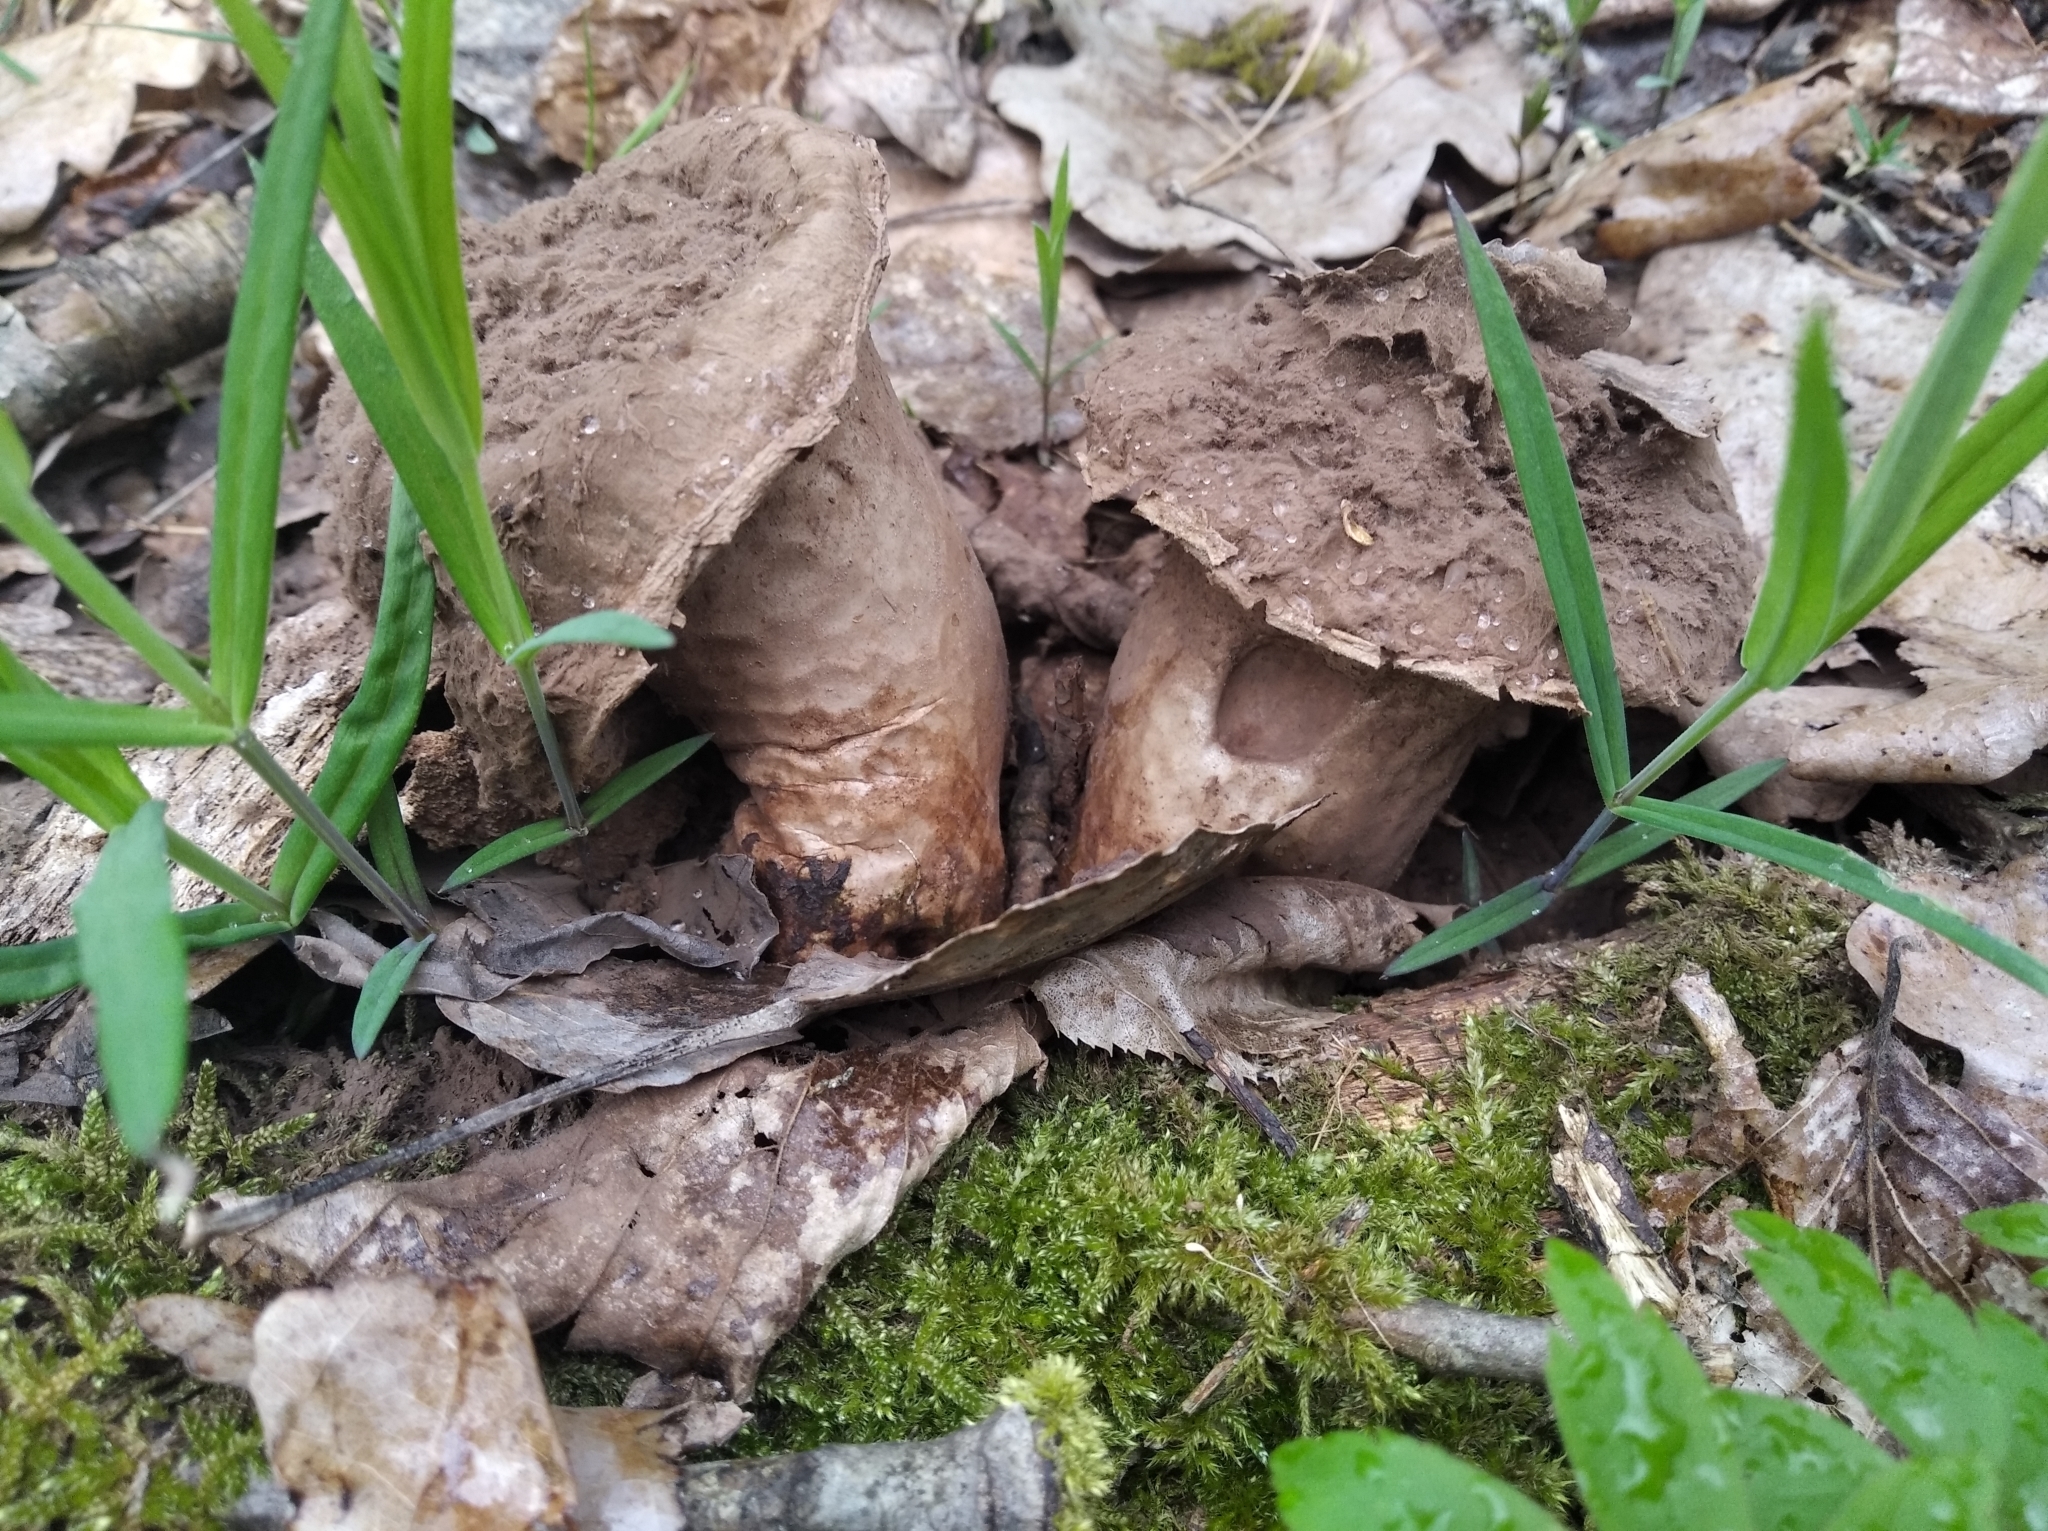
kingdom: Fungi
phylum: Basidiomycota
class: Agaricomycetes
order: Agaricales
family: Lycoperdaceae
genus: Lycoperdon
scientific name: Lycoperdon excipuliforme
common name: Pestle puffball
